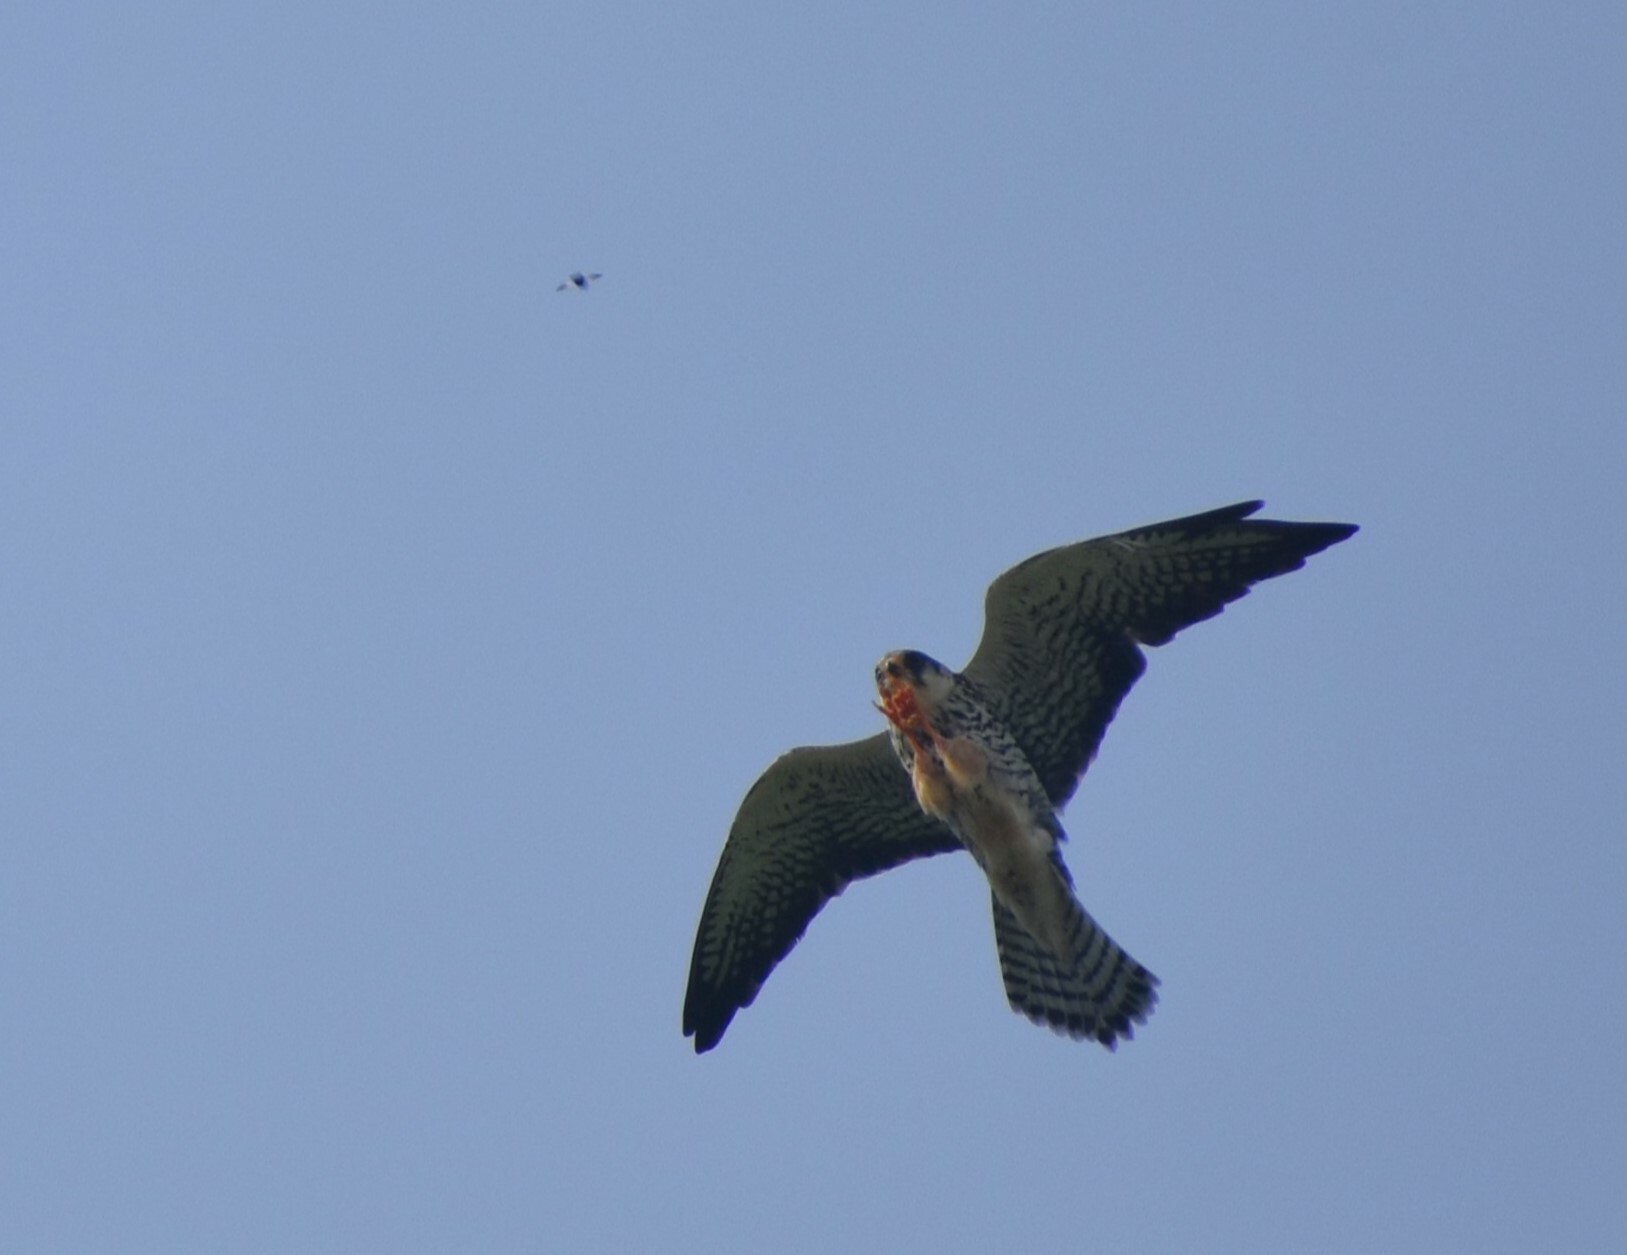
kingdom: Animalia
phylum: Chordata
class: Aves
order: Falconiformes
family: Falconidae
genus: Falco
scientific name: Falco amurensis
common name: Amur falcon
